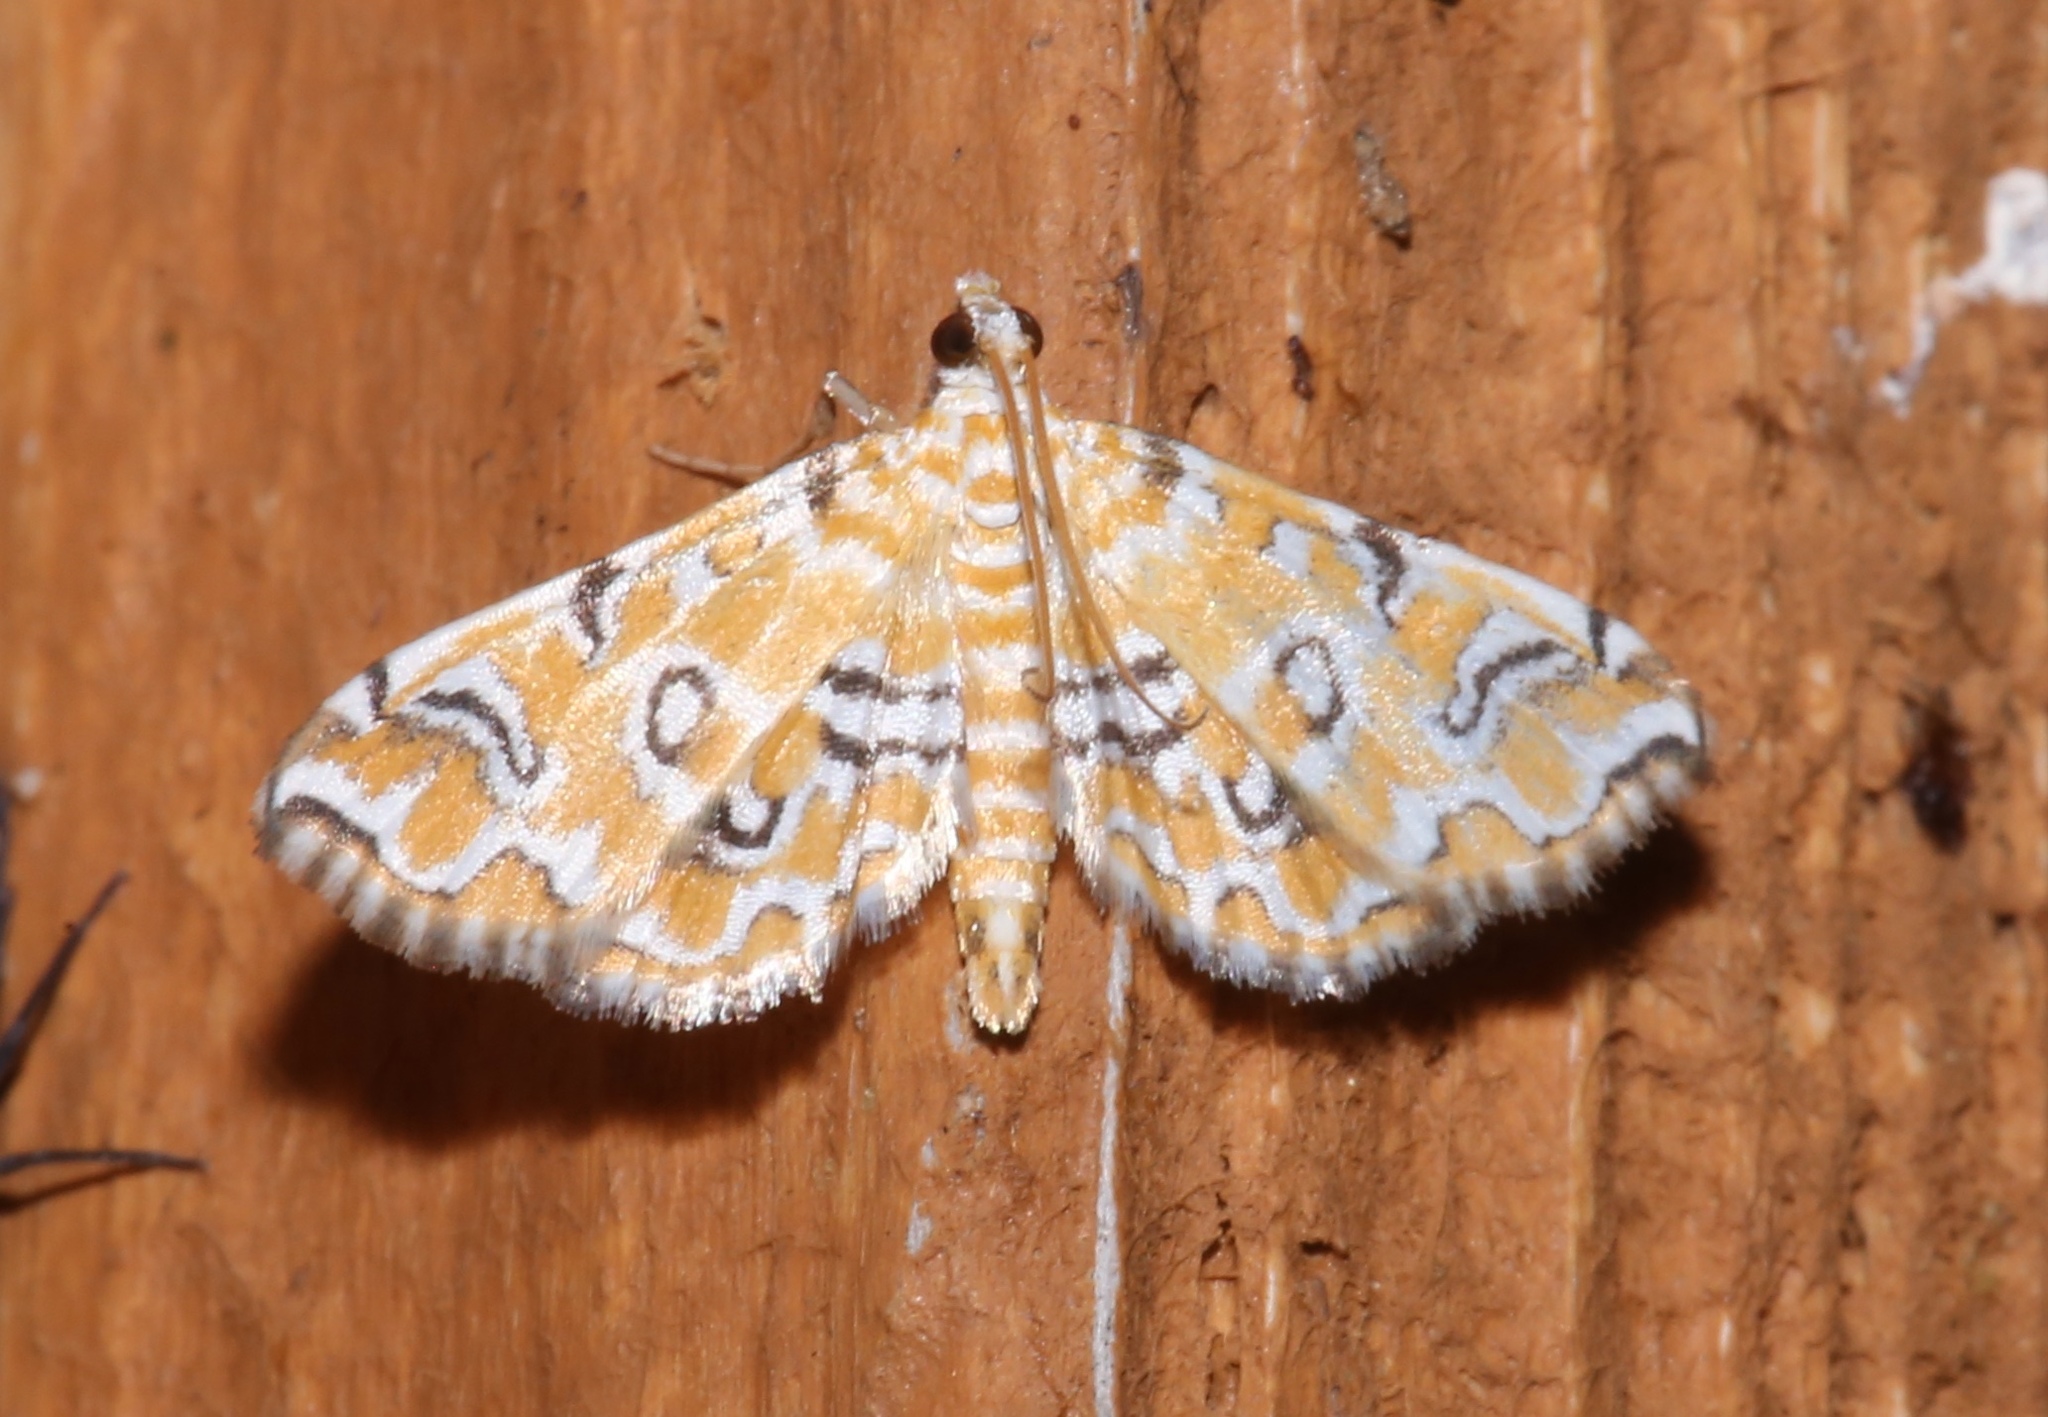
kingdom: Animalia
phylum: Arthropoda
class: Insecta
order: Lepidoptera
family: Crambidae
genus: Elophila
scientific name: Elophila icciusalis
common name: Pondside pyralid moth
